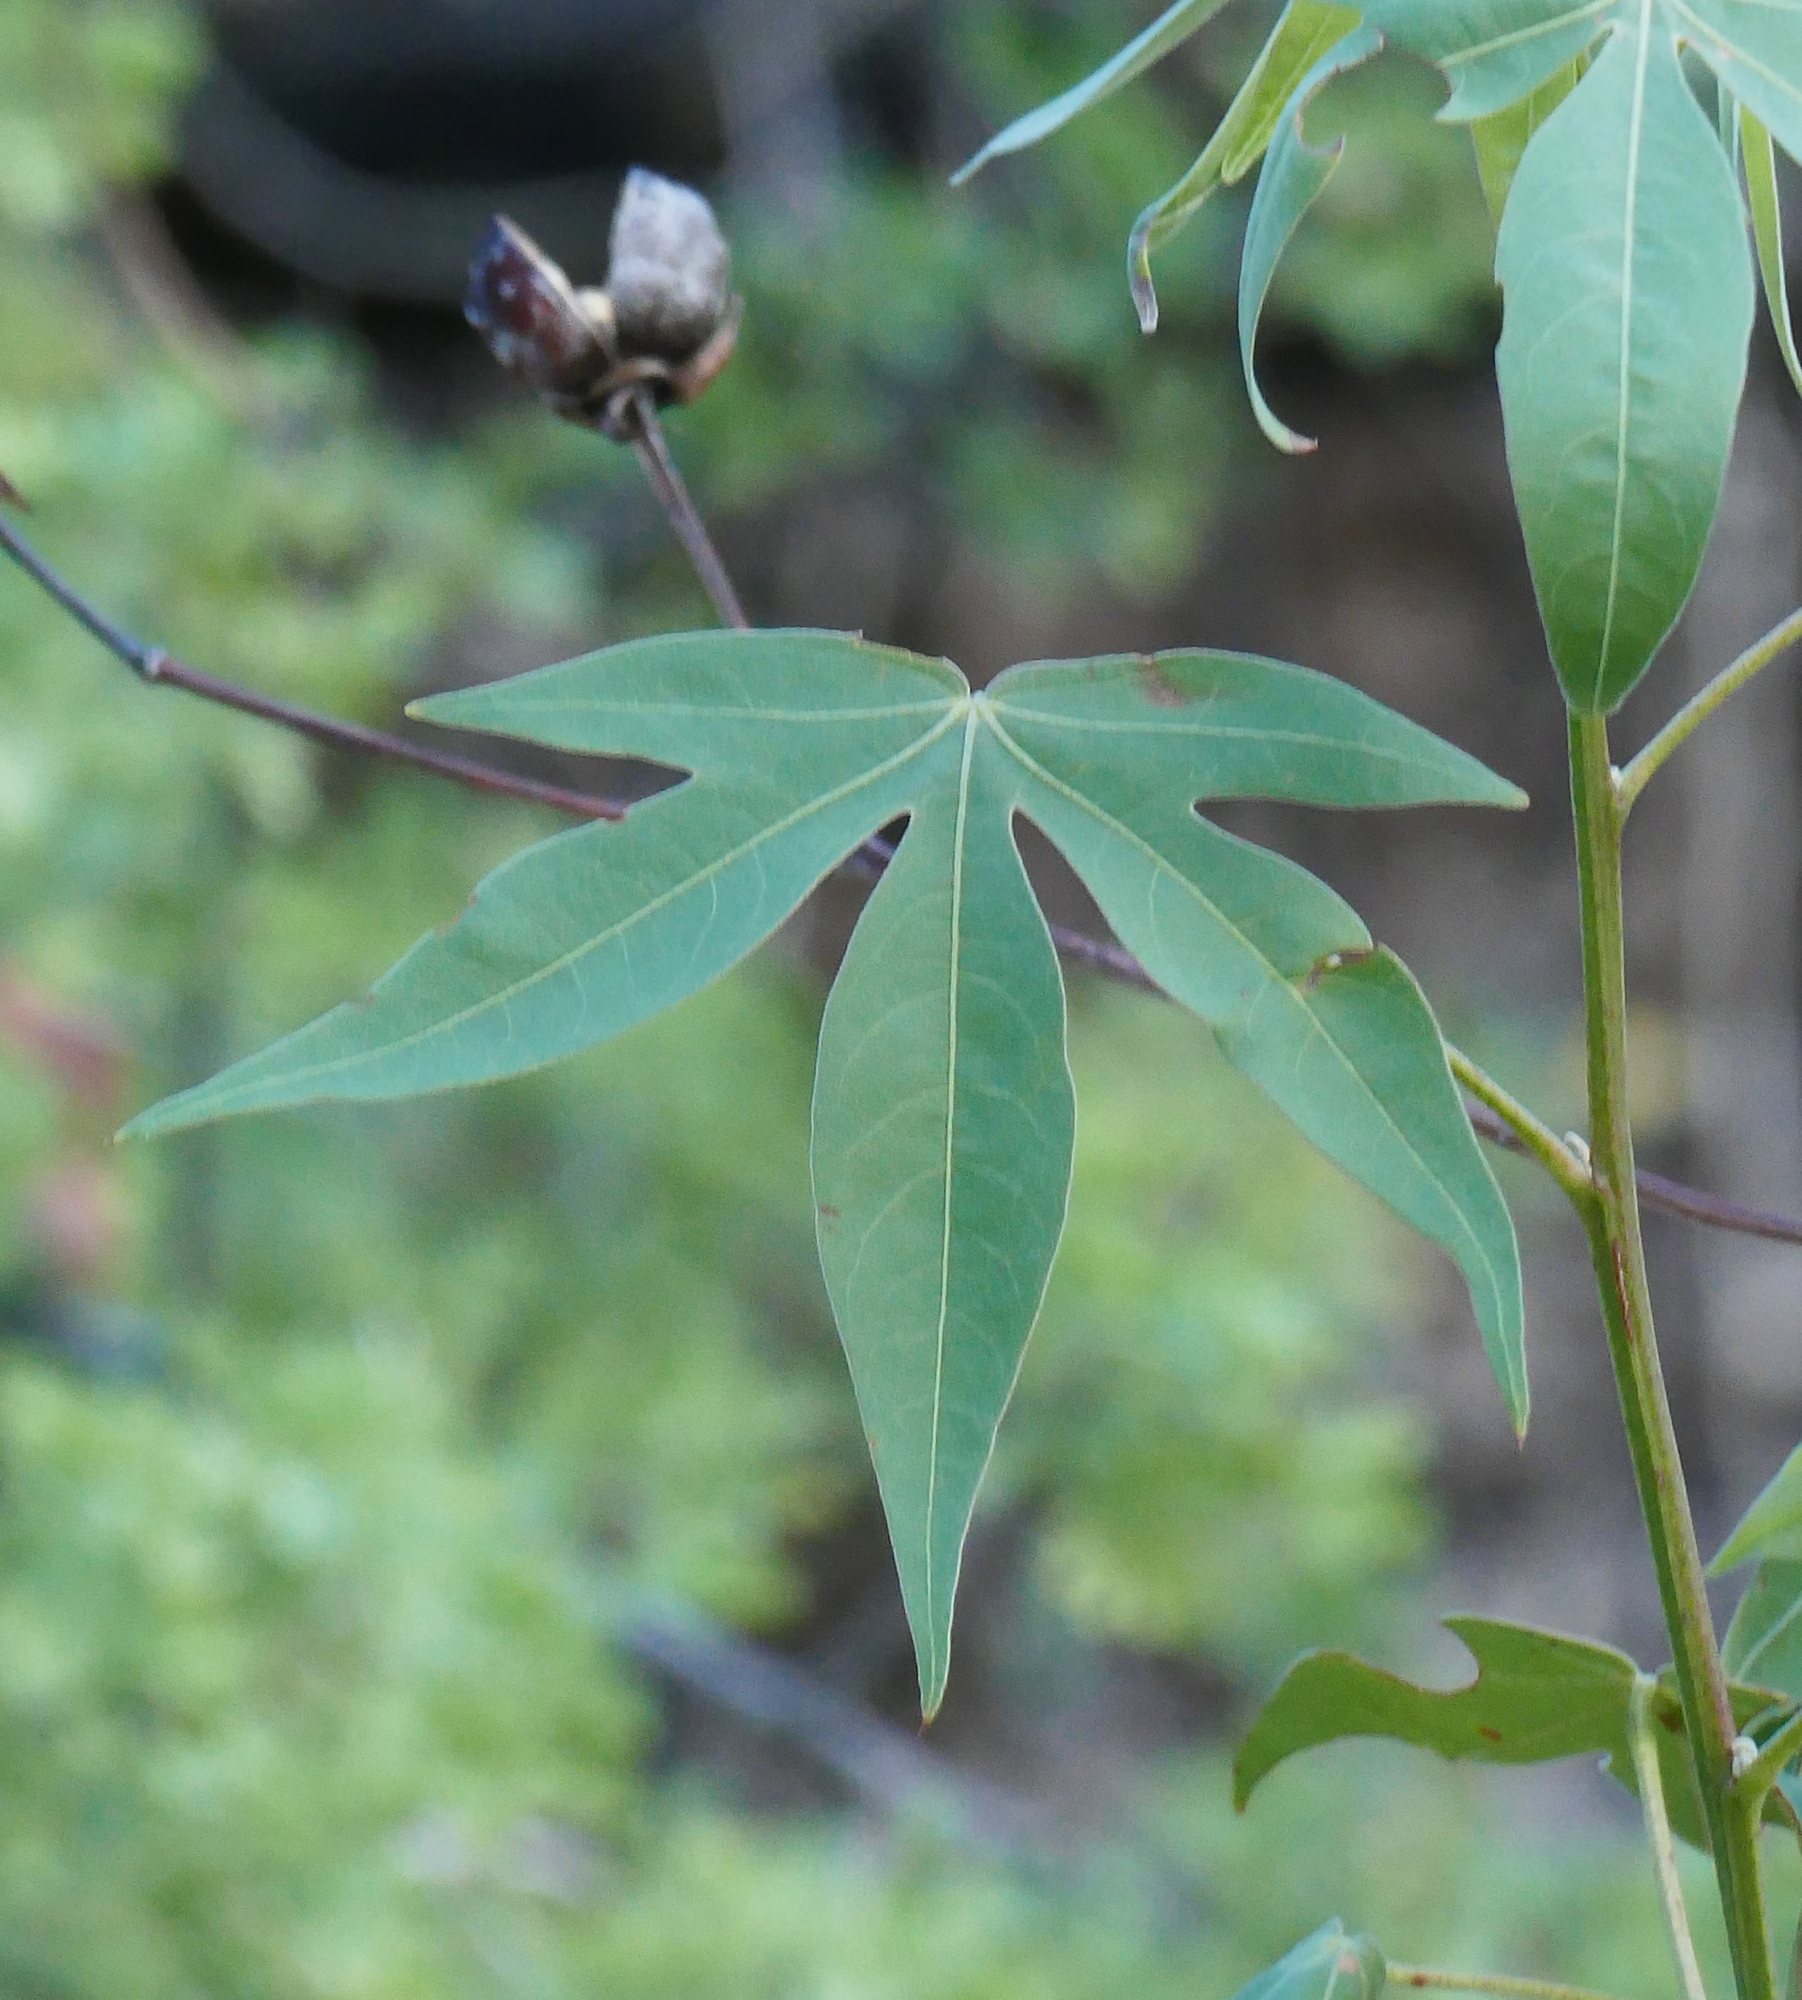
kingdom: Plantae
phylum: Tracheophyta
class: Magnoliopsida
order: Malvales
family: Malvaceae
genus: Gossypium
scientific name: Gossypium thurberi
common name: Desert cotton
